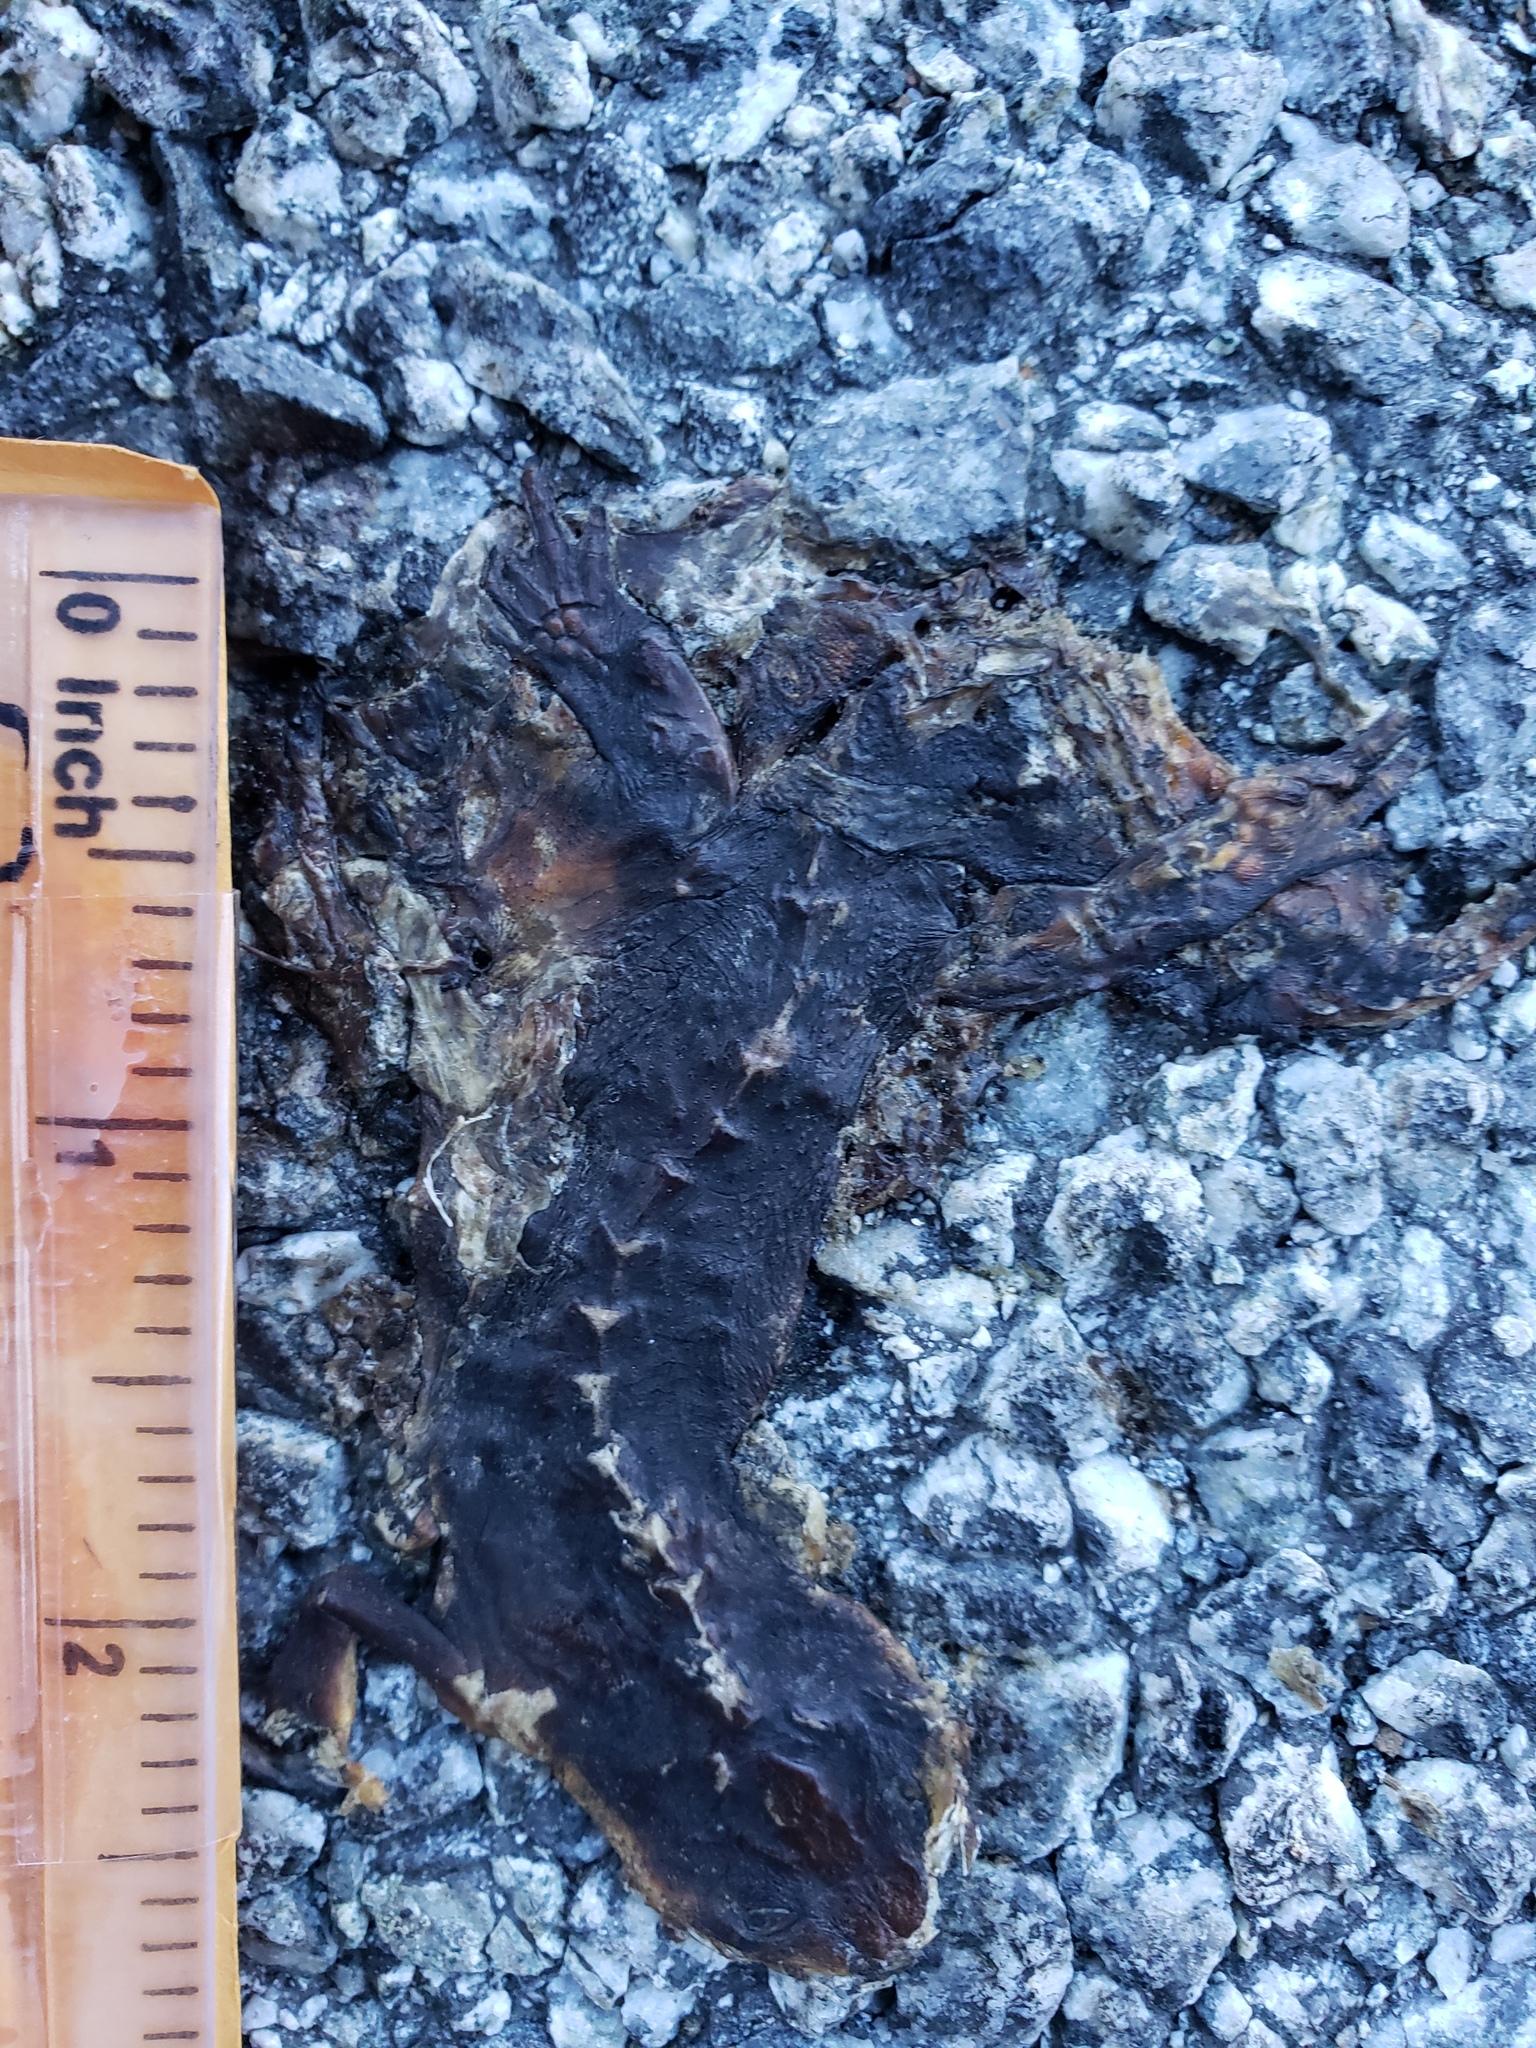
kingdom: Animalia
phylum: Chordata
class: Amphibia
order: Caudata
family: Salamandridae
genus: Taricha
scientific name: Taricha
